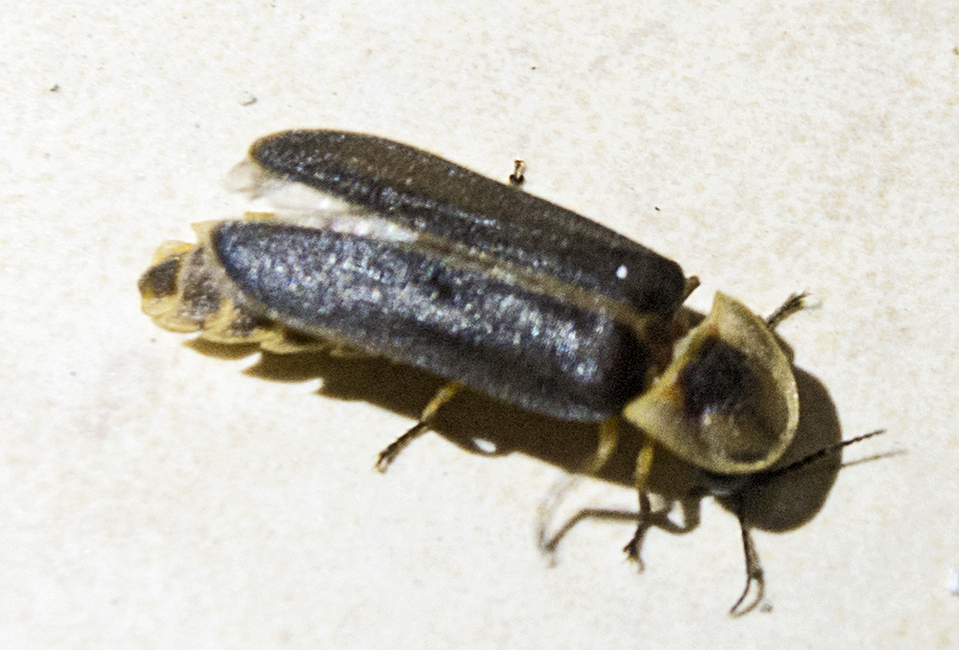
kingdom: Animalia
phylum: Arthropoda
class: Insecta
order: Coleoptera
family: Lampyridae
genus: Lampyris
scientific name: Lampyris zenkeri
